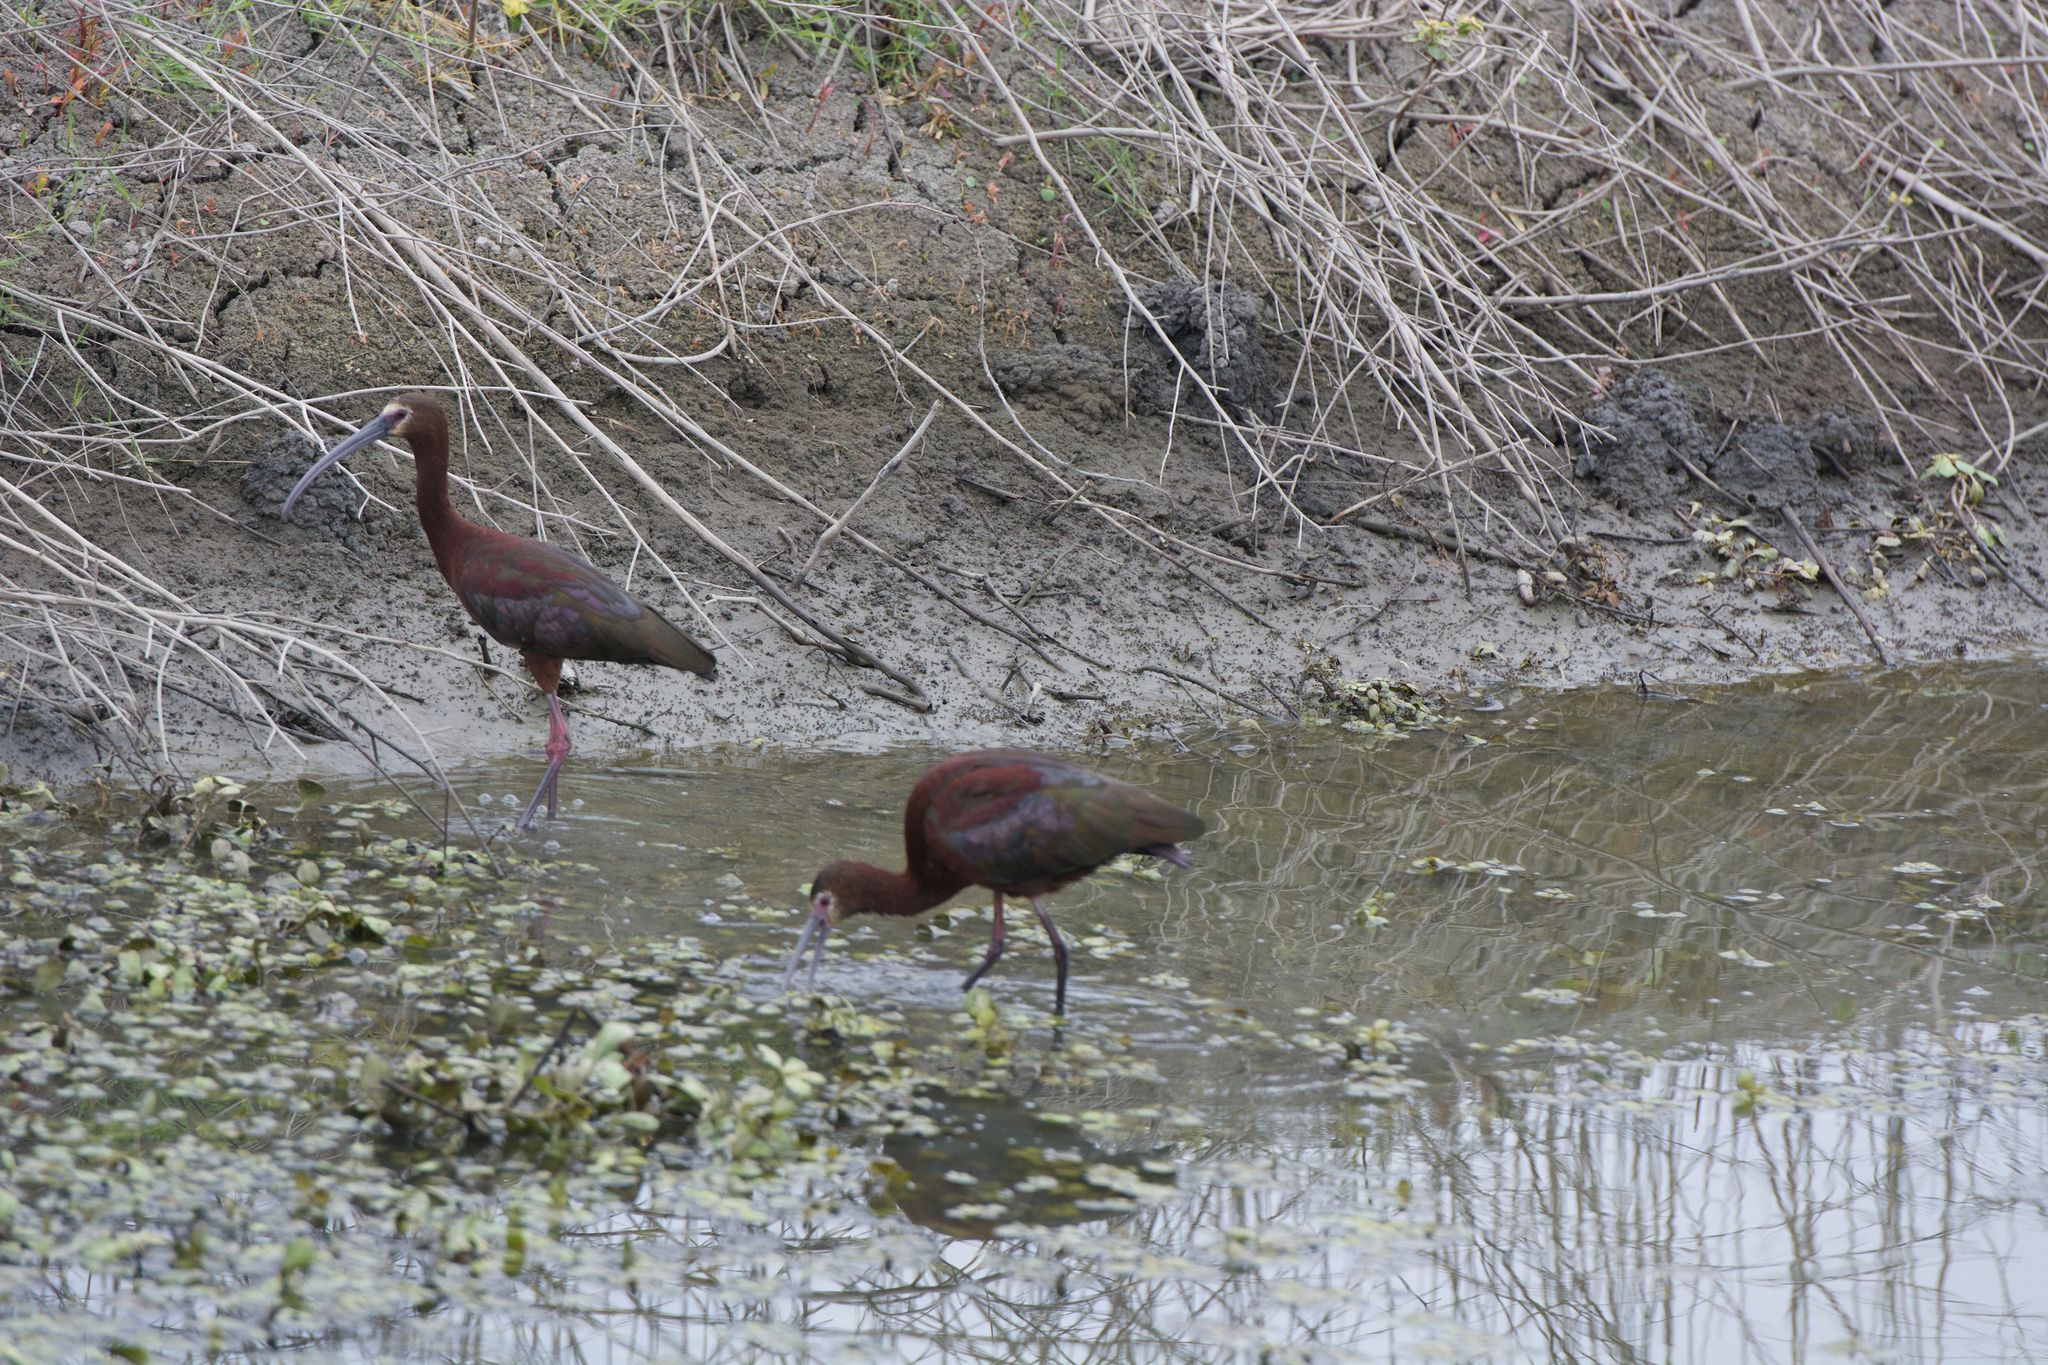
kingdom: Animalia
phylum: Chordata
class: Aves
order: Pelecaniformes
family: Threskiornithidae
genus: Plegadis
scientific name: Plegadis chihi
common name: White-faced ibis
